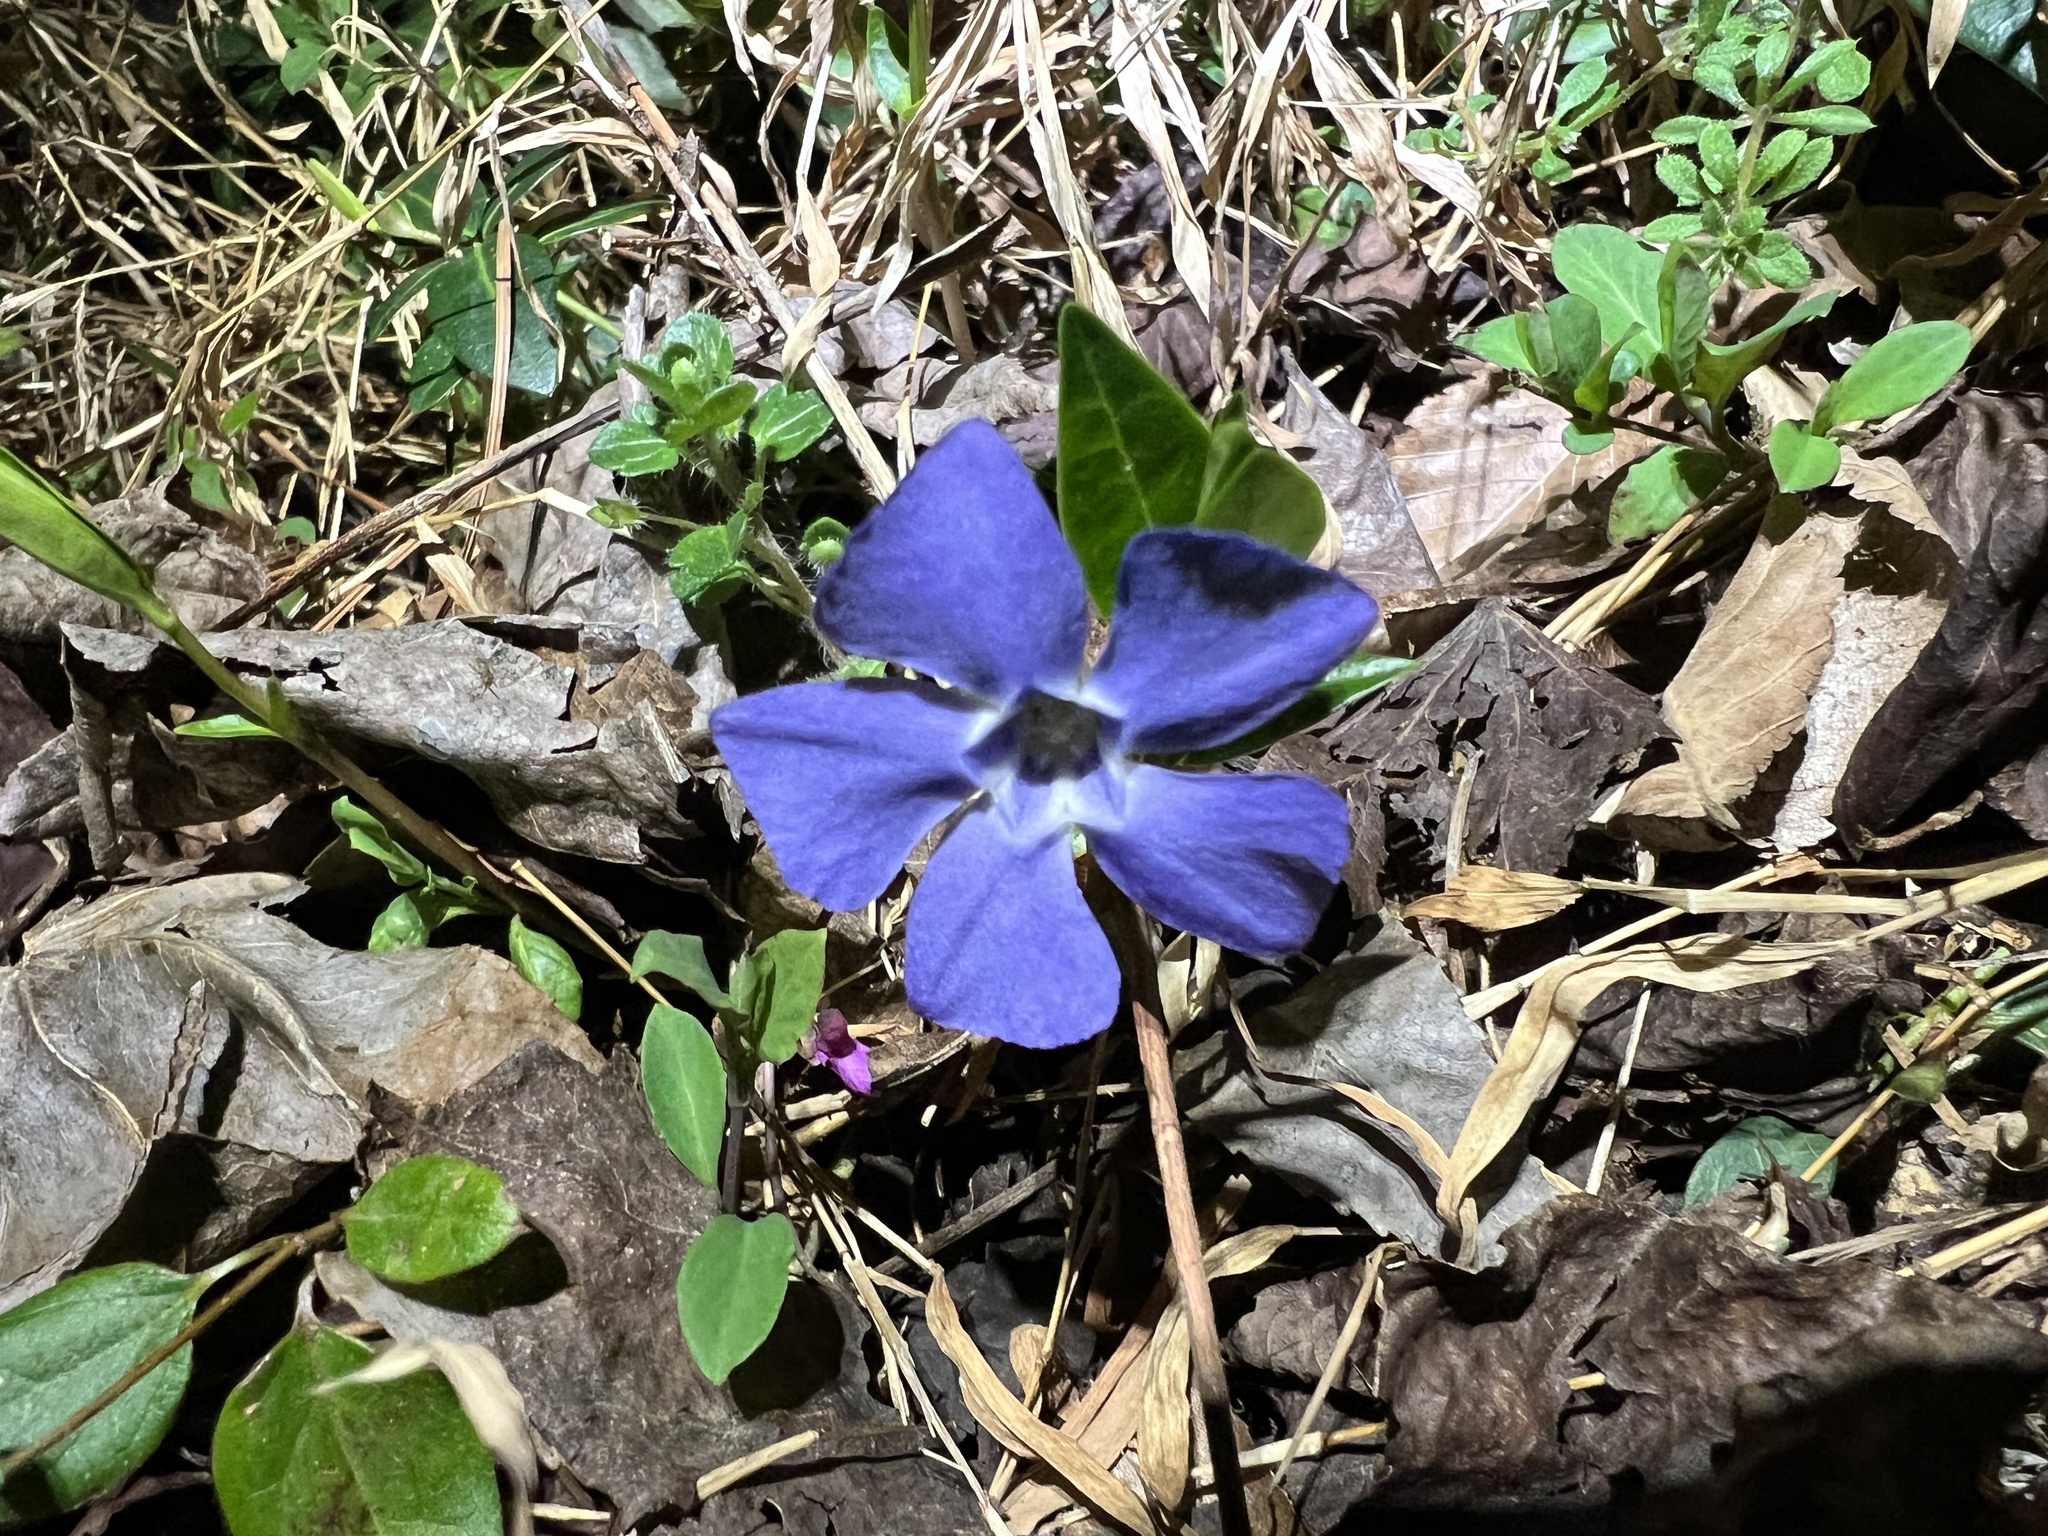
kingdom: Plantae
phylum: Tracheophyta
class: Magnoliopsida
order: Gentianales
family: Apocynaceae
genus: Vinca
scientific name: Vinca minor
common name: Lesser periwinkle
